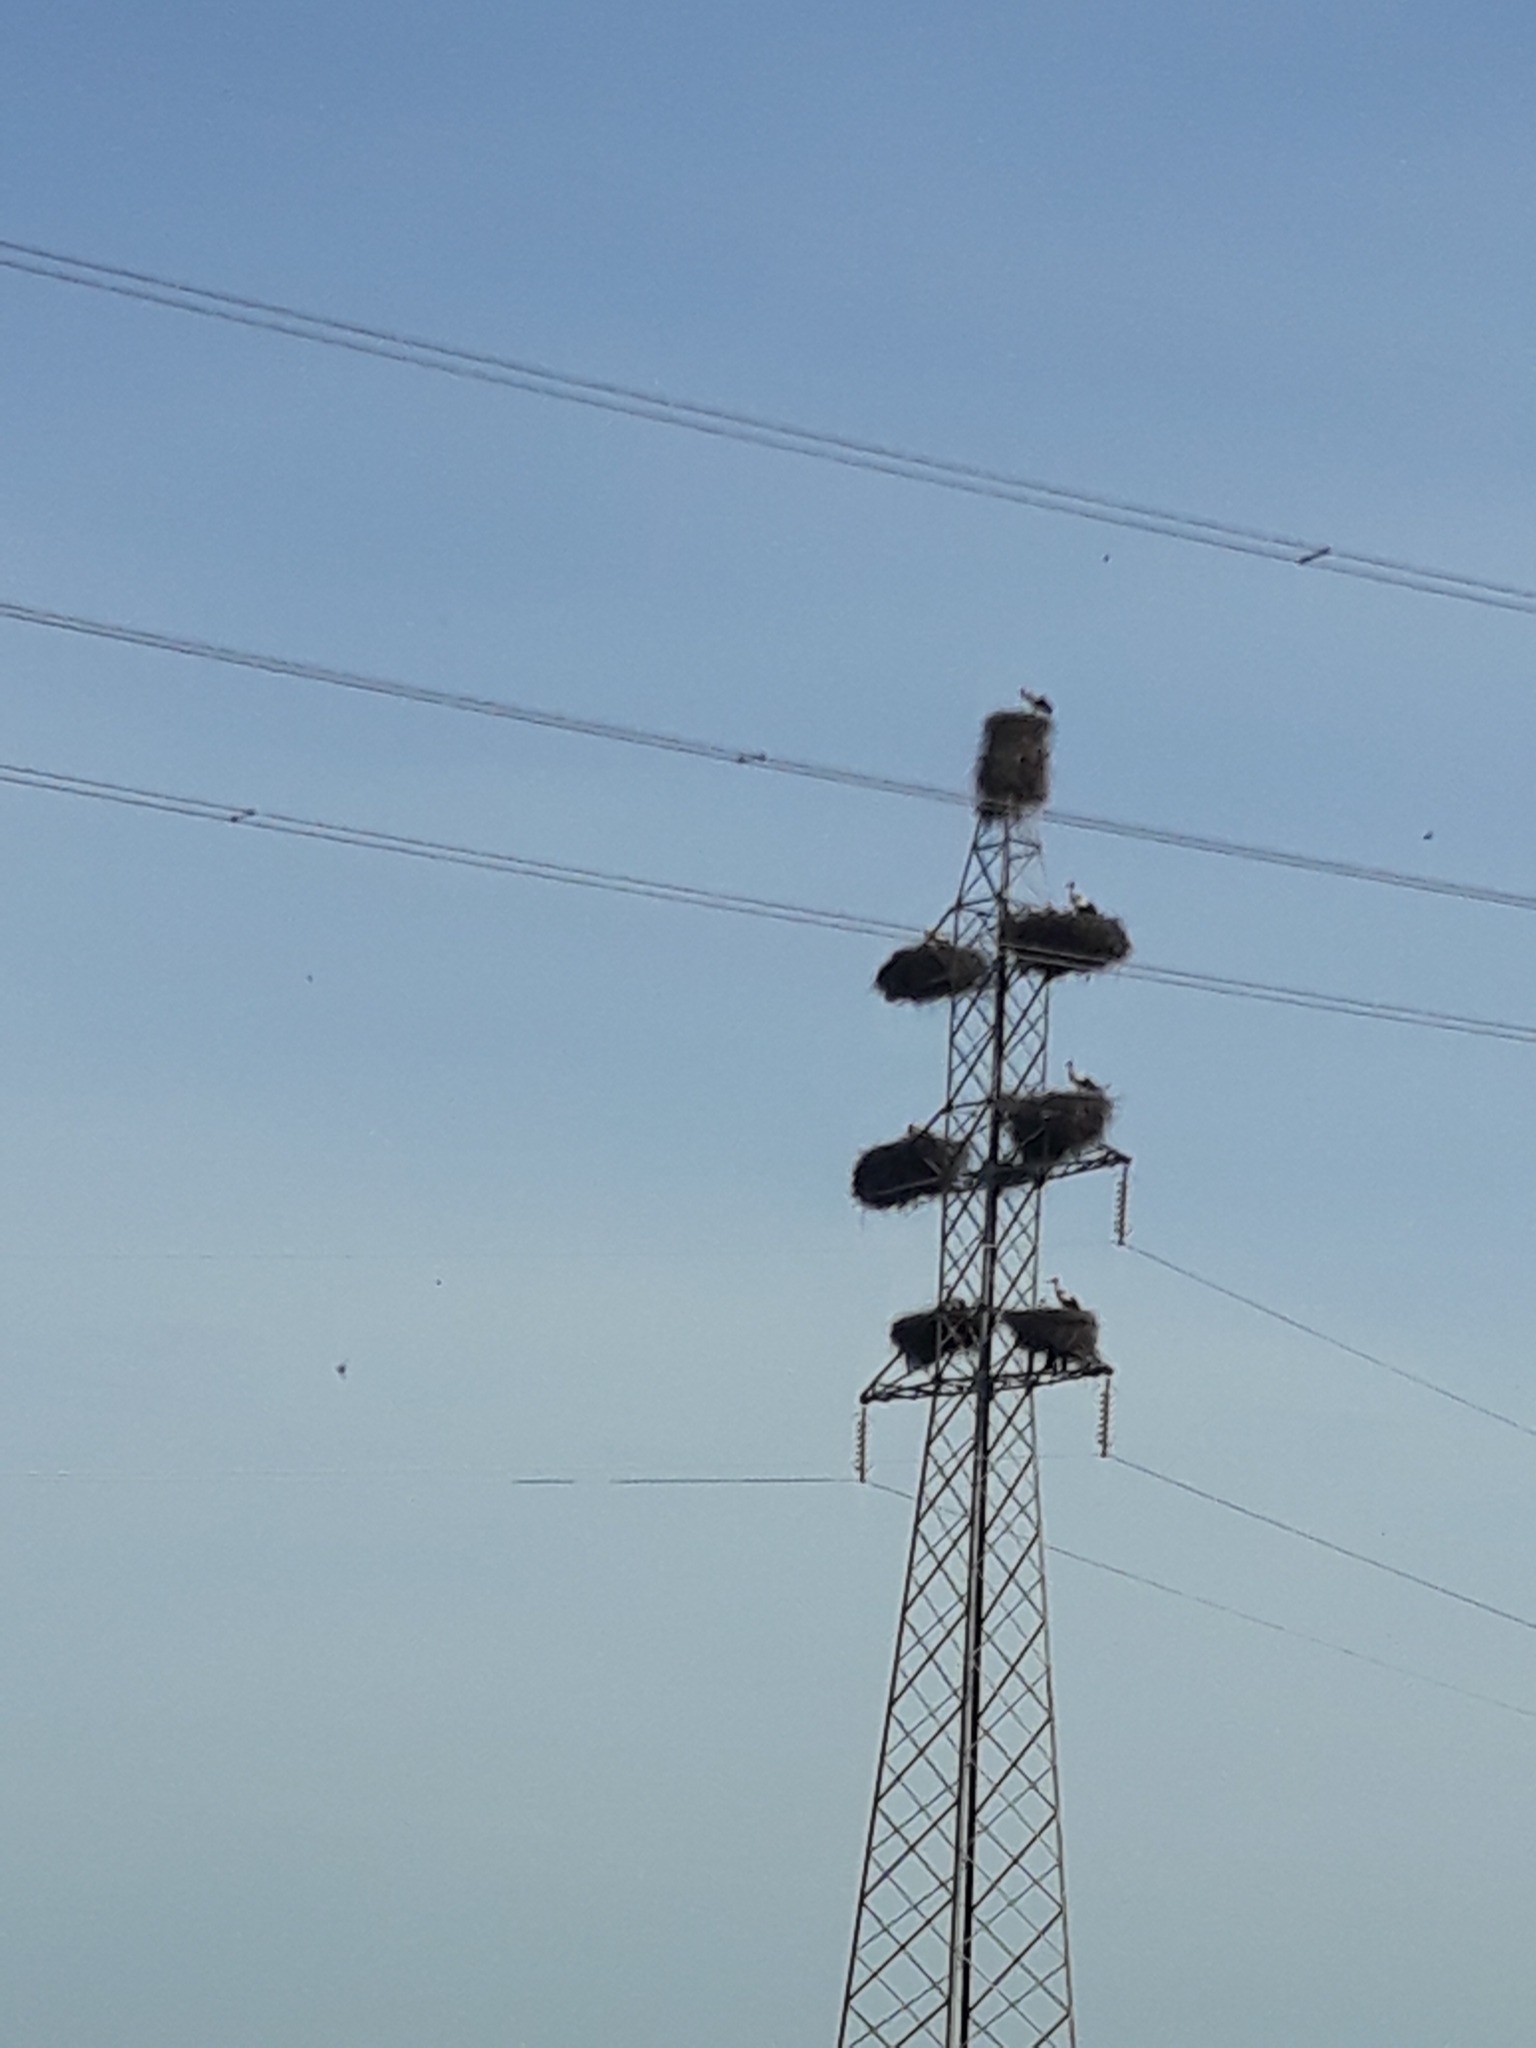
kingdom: Animalia
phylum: Chordata
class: Aves
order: Ciconiiformes
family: Ciconiidae
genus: Ciconia
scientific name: Ciconia ciconia
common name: White stork
